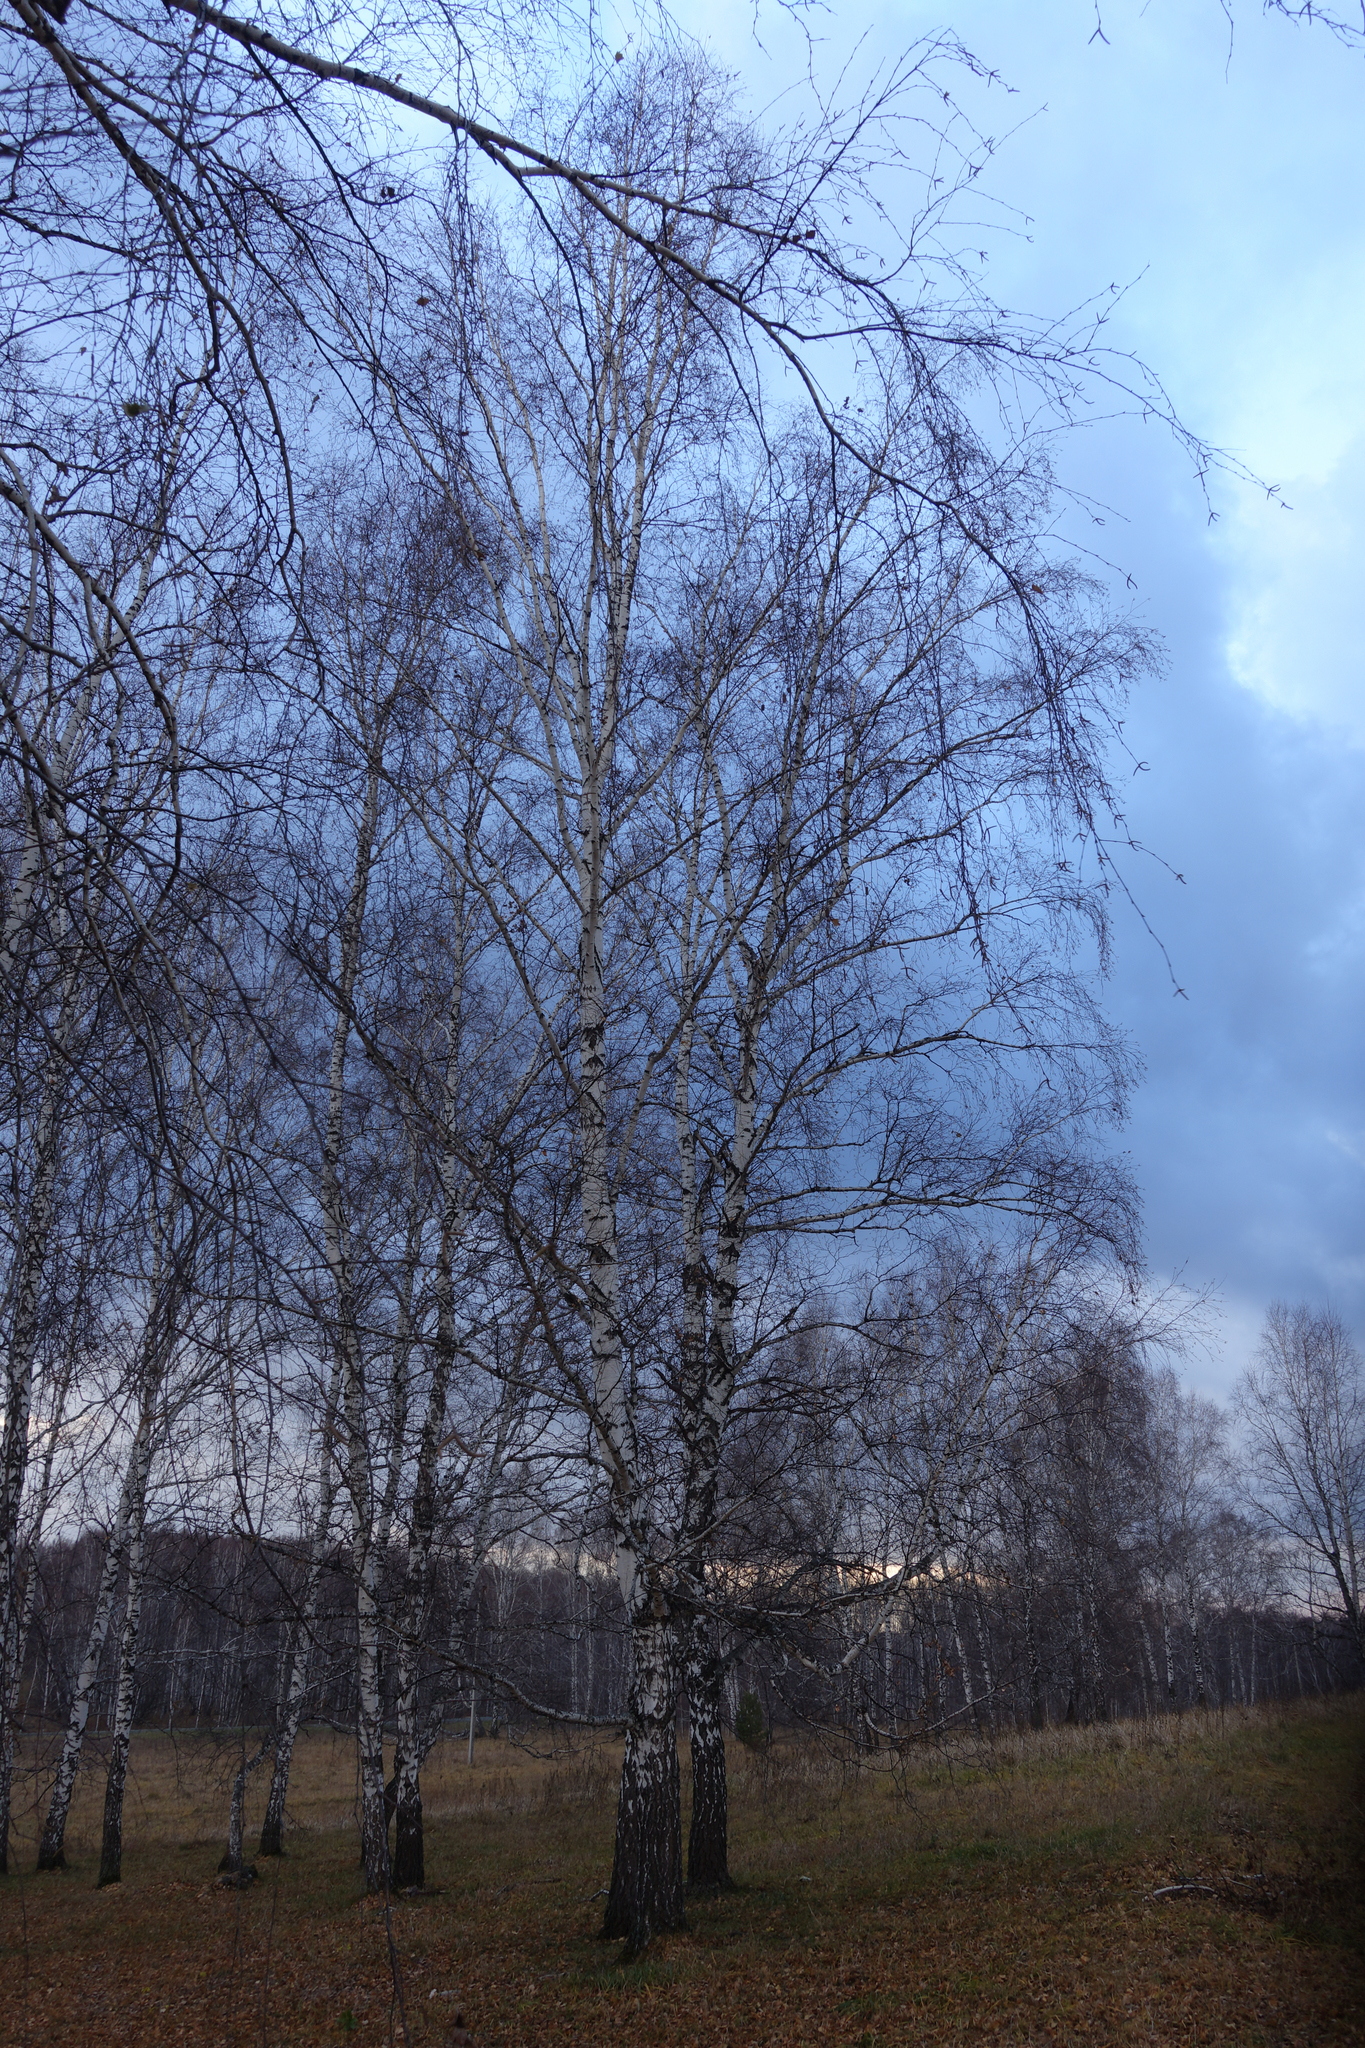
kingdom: Plantae
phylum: Tracheophyta
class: Magnoliopsida
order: Fagales
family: Betulaceae
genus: Betula
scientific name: Betula pendula
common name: Silver birch
